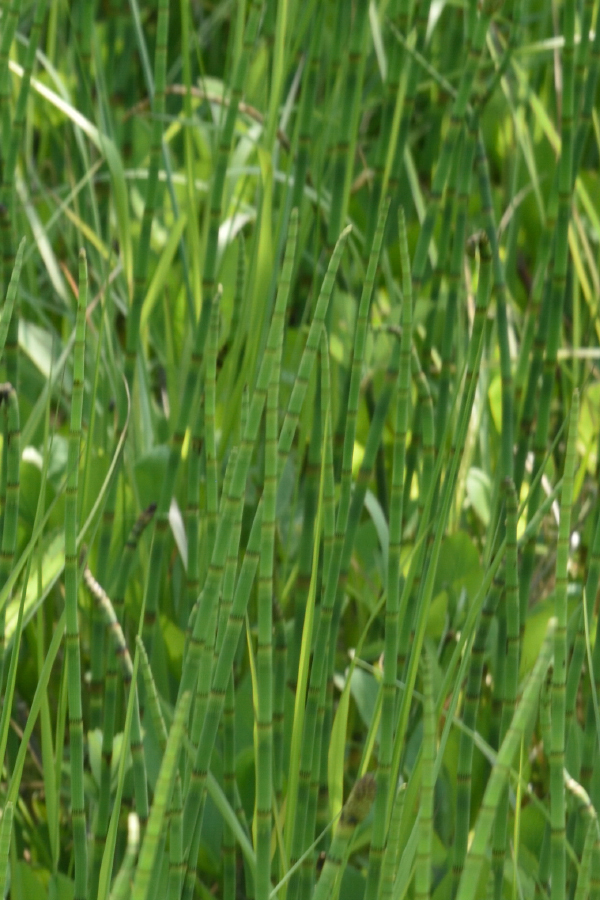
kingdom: Plantae
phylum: Tracheophyta
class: Polypodiopsida
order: Equisetales
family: Equisetaceae
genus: Equisetum
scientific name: Equisetum fluviatile
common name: Water horsetail
